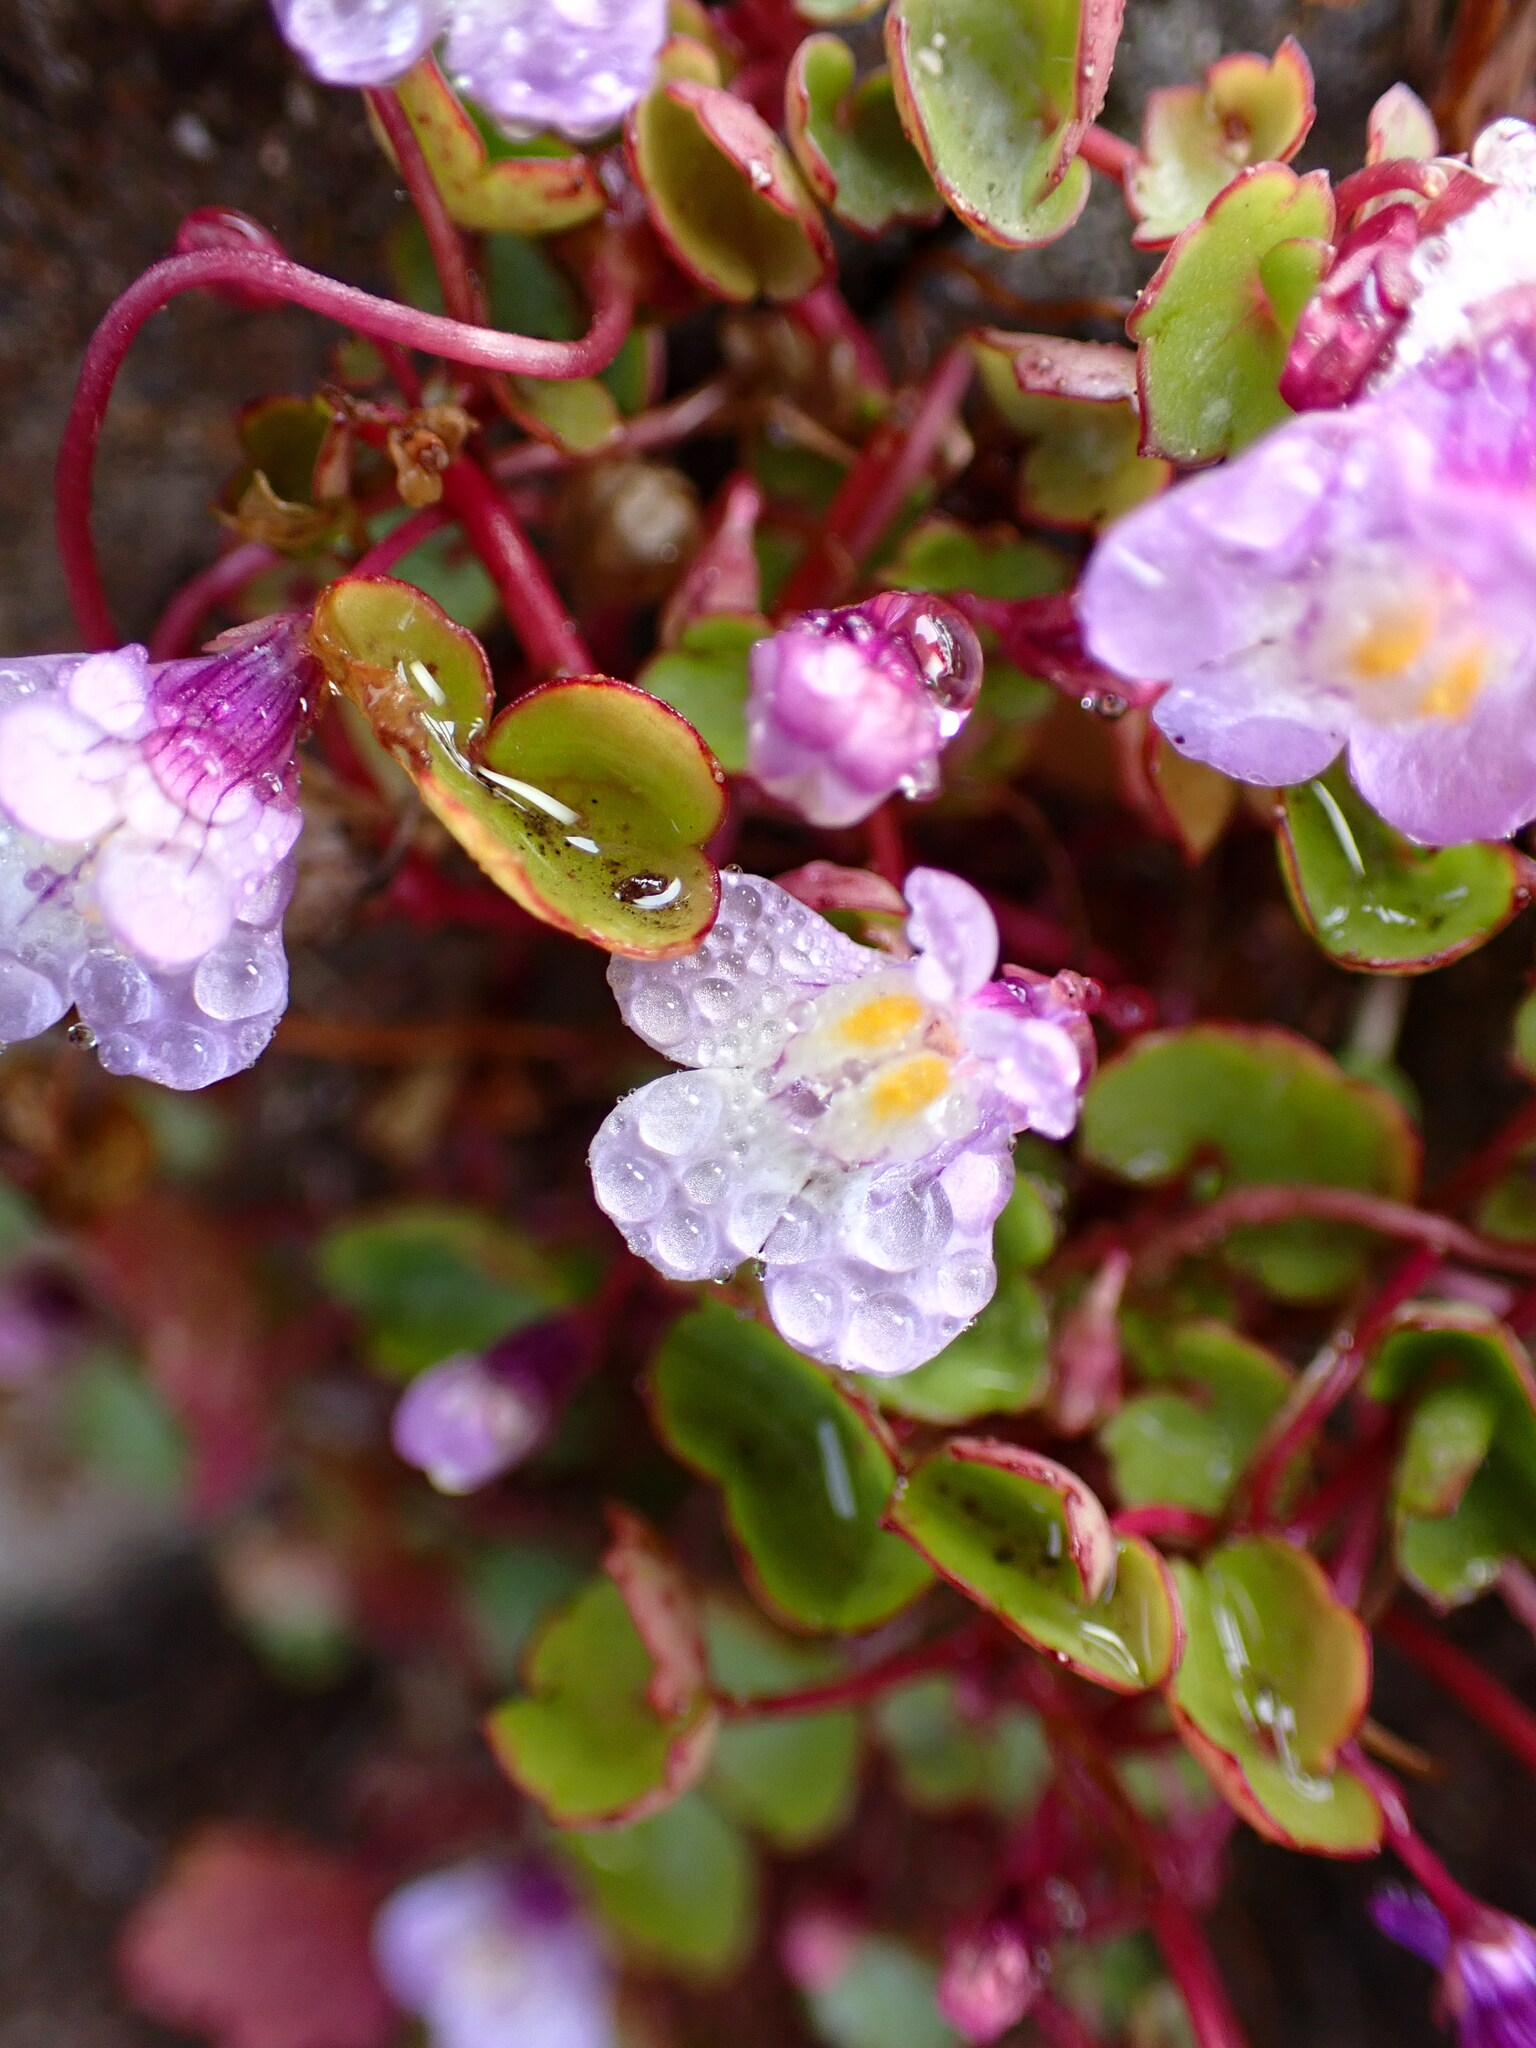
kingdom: Plantae
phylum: Tracheophyta
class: Magnoliopsida
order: Lamiales
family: Plantaginaceae
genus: Cymbalaria
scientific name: Cymbalaria muralis
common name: Ivy-leaved toadflax
